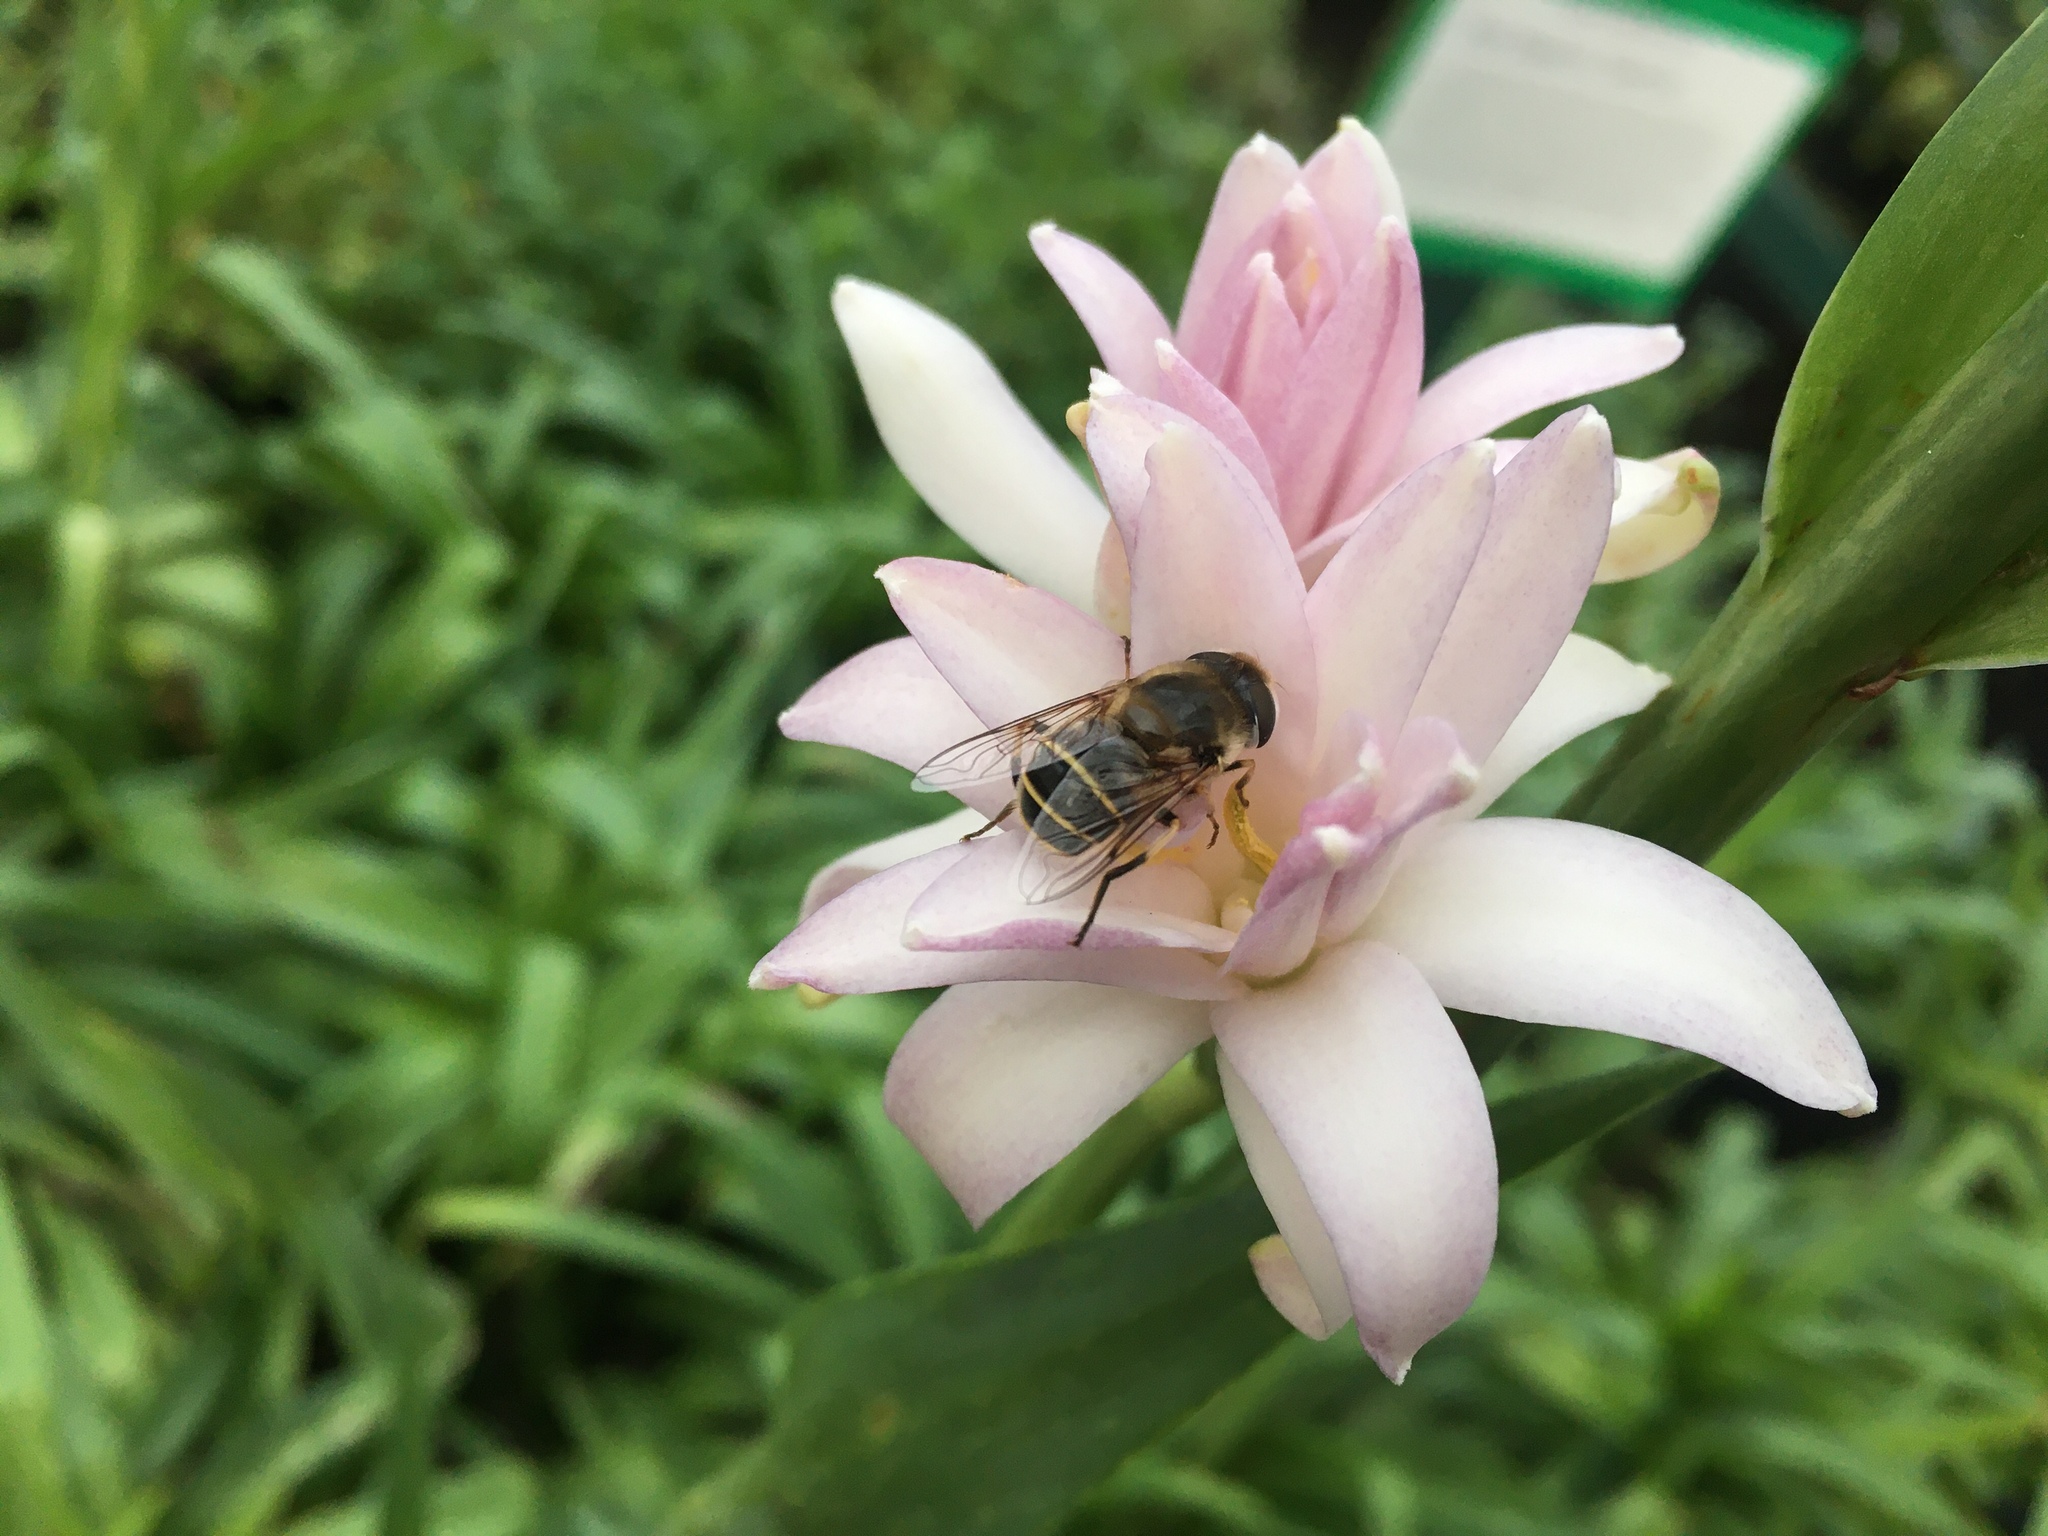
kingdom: Animalia
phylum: Arthropoda
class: Insecta
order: Diptera
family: Syrphidae
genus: Eristalis
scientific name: Eristalis hirta
